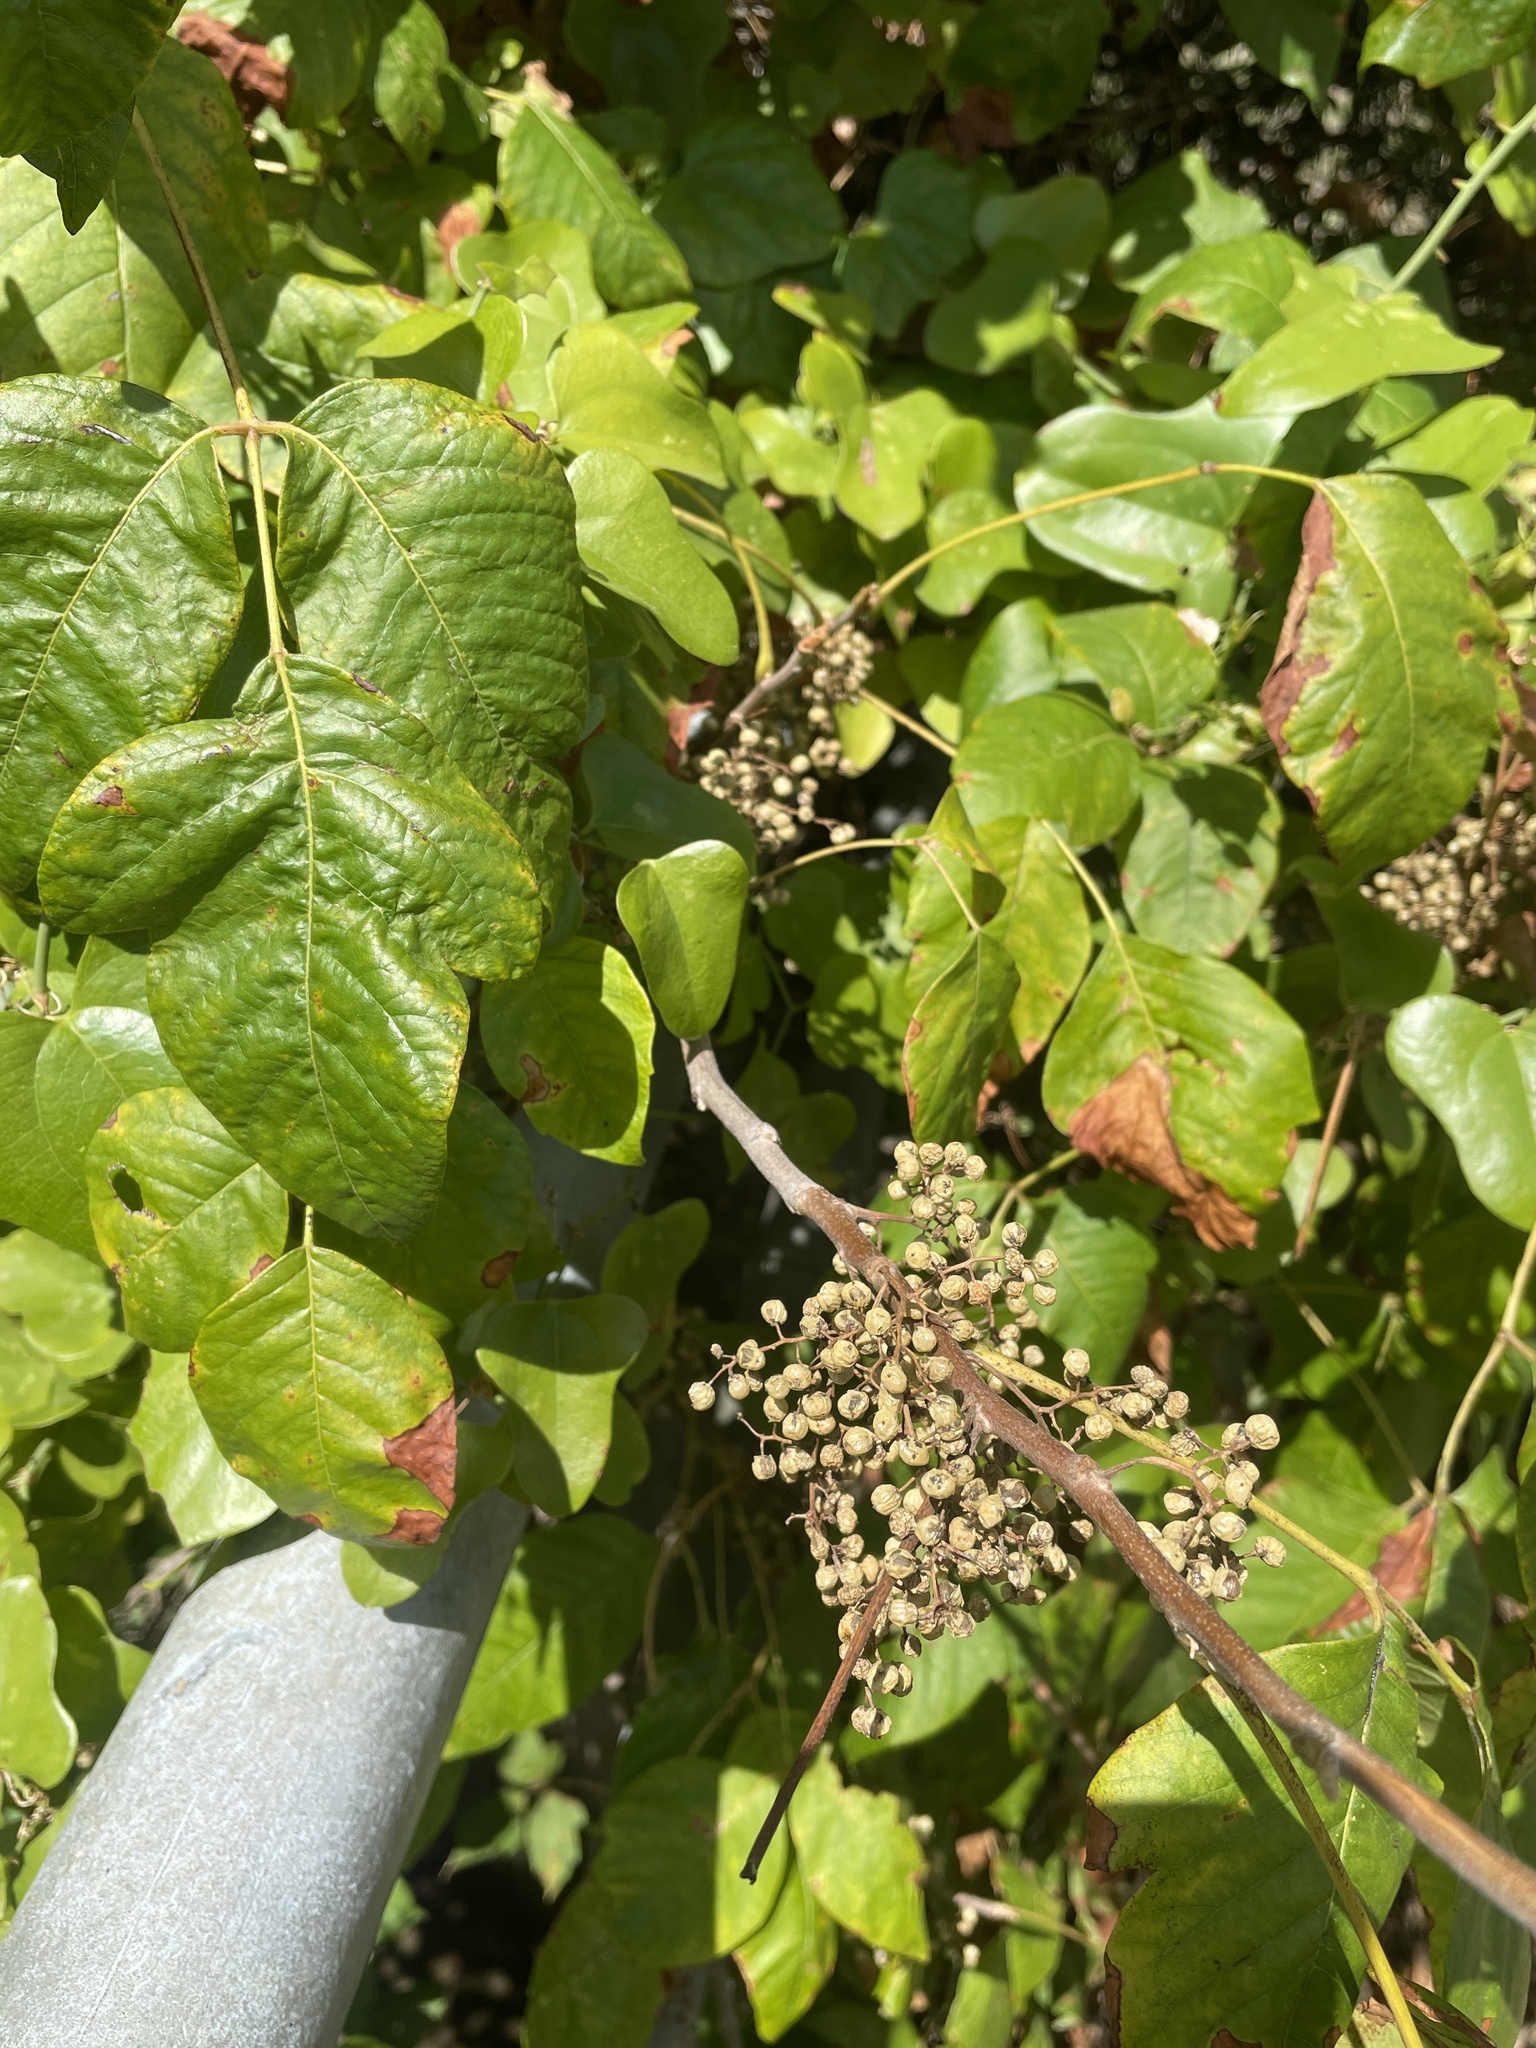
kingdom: Plantae
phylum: Tracheophyta
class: Magnoliopsida
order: Sapindales
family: Anacardiaceae
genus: Toxicodendron
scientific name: Toxicodendron radicans
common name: Poison ivy
